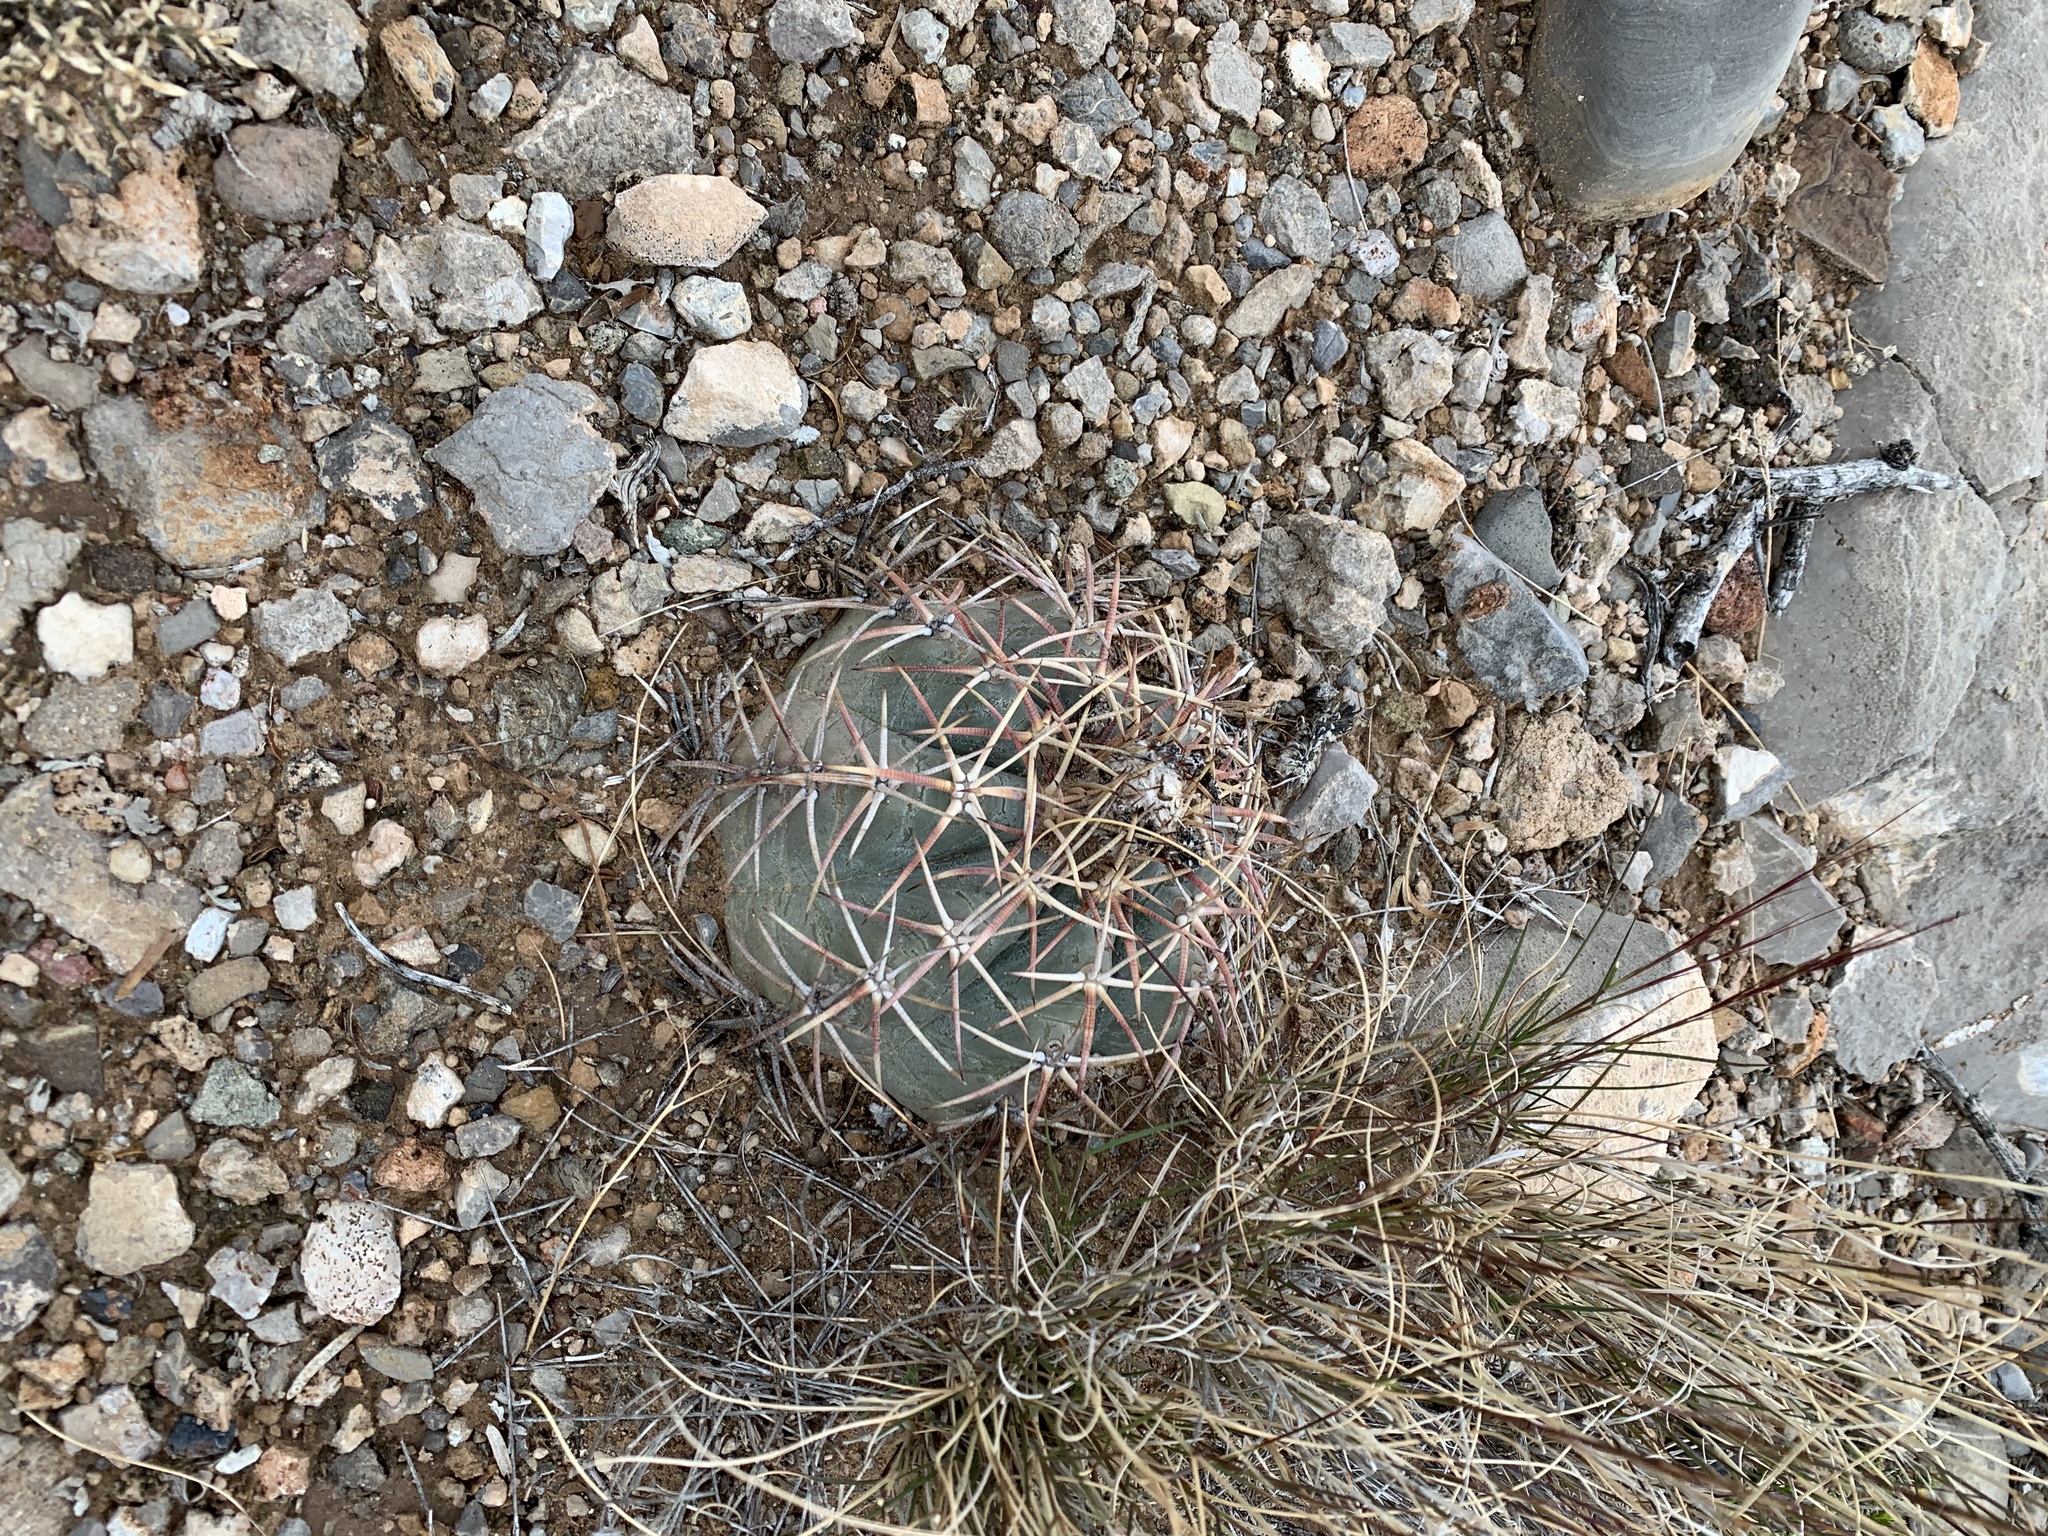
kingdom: Plantae
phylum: Tracheophyta
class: Magnoliopsida
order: Caryophyllales
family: Cactaceae
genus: Echinocactus
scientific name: Echinocactus horizonthalonius
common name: Devilshead
